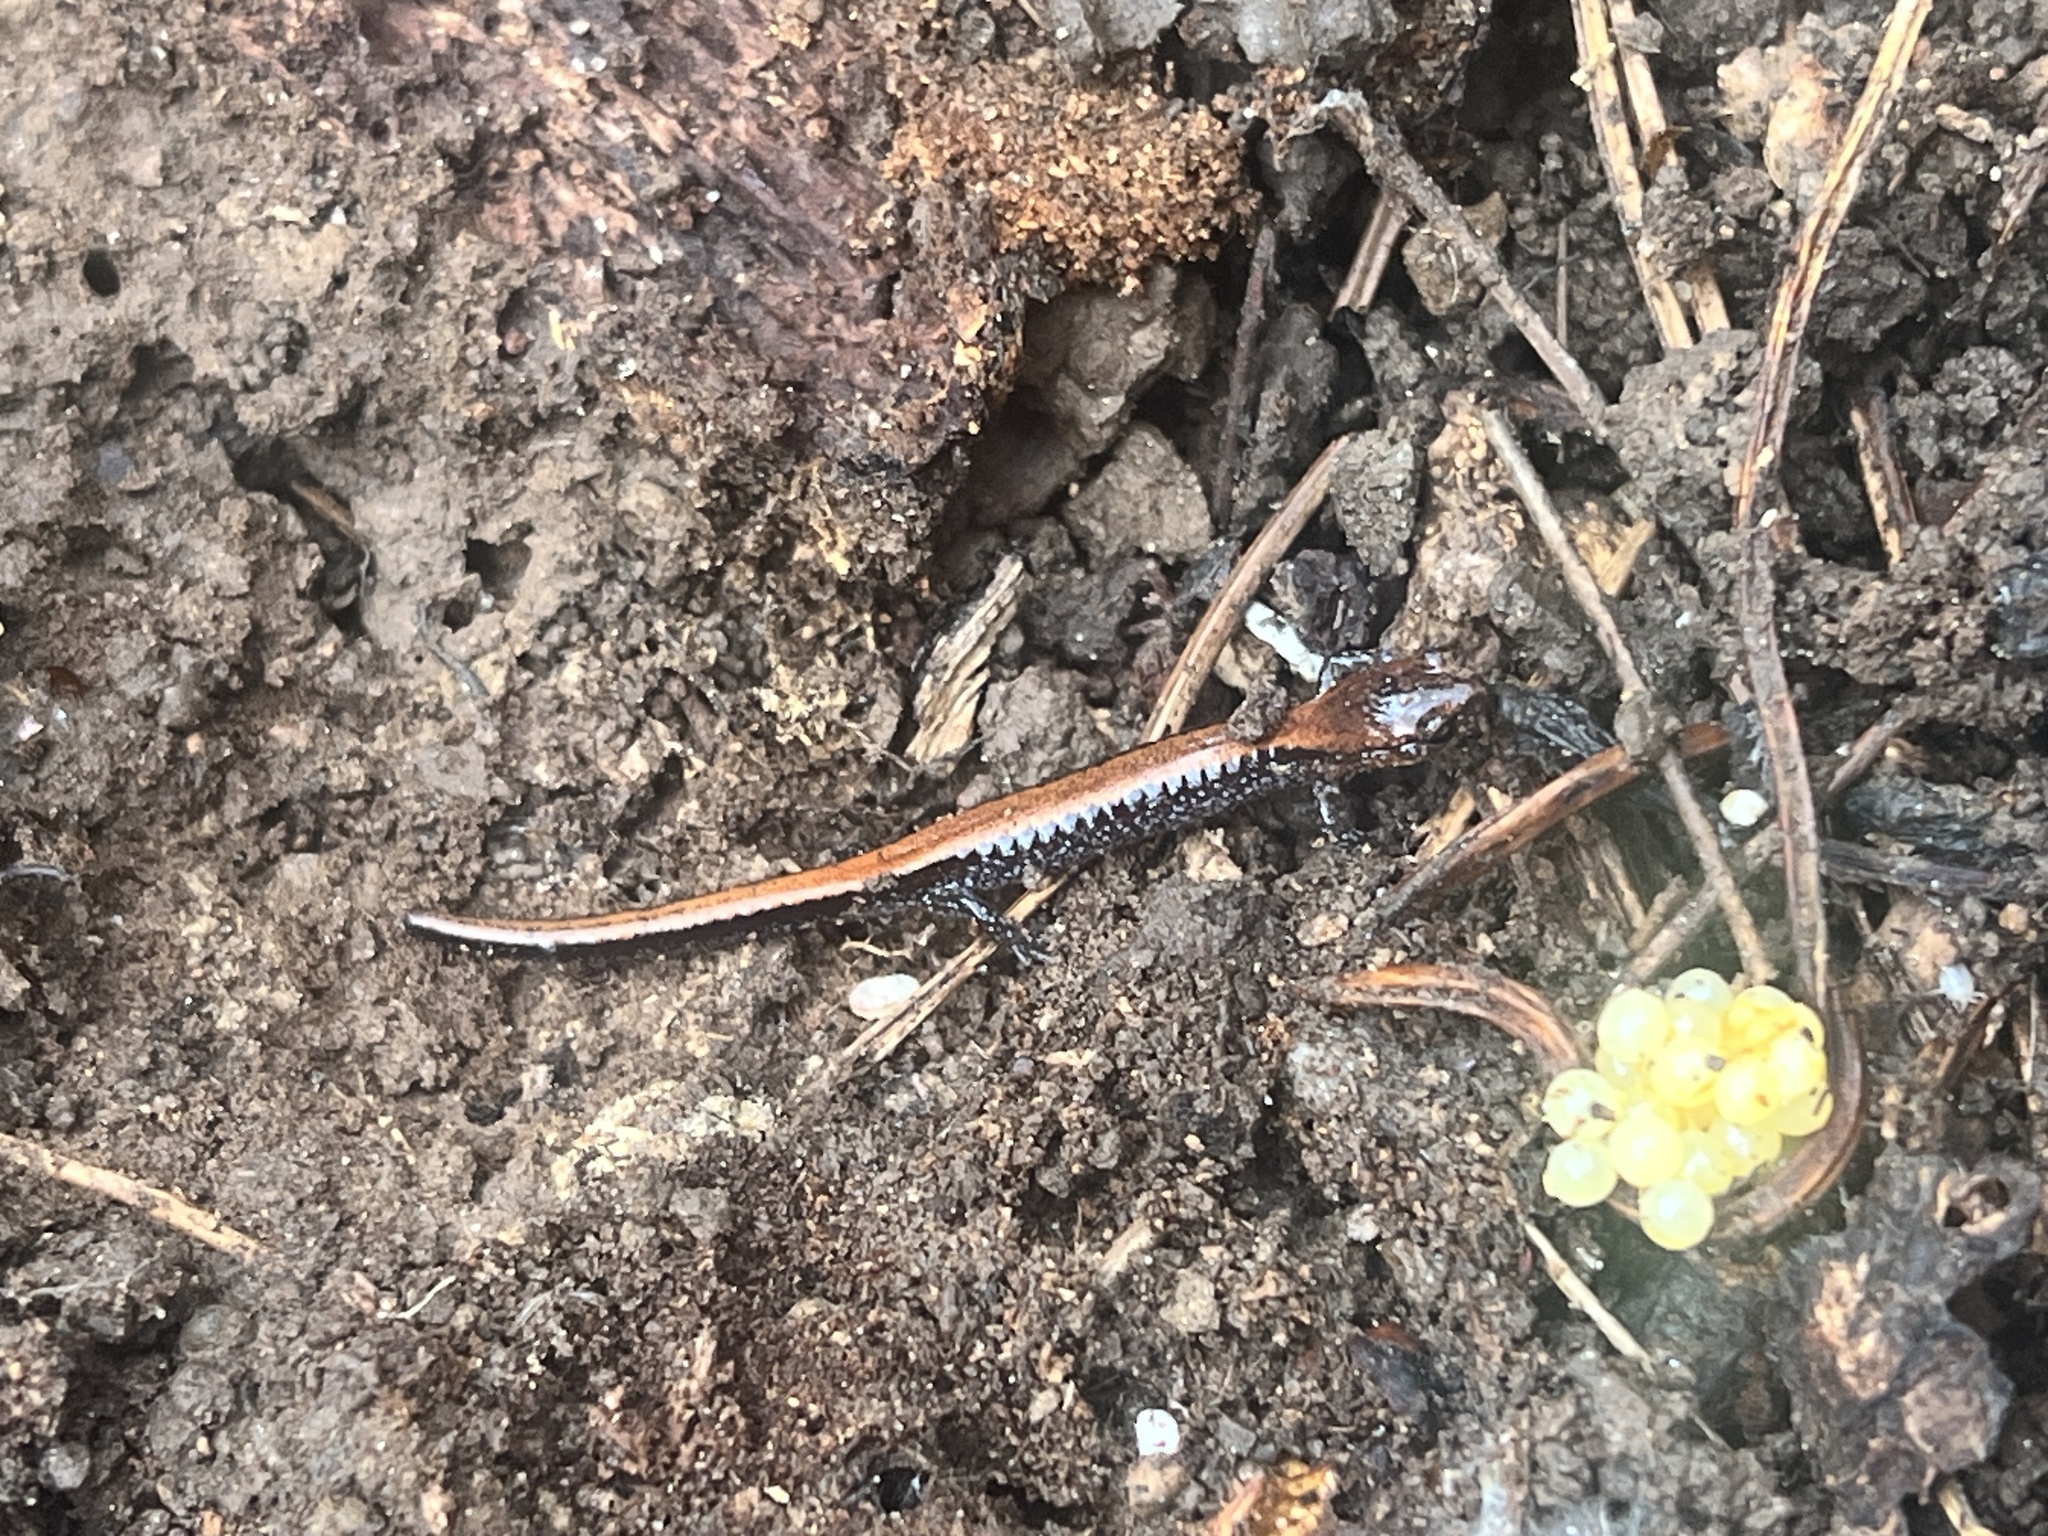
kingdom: Animalia
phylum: Chordata
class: Amphibia
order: Caudata
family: Plethodontidae
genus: Plethodon
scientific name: Plethodon cinereus
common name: Redback salamander
